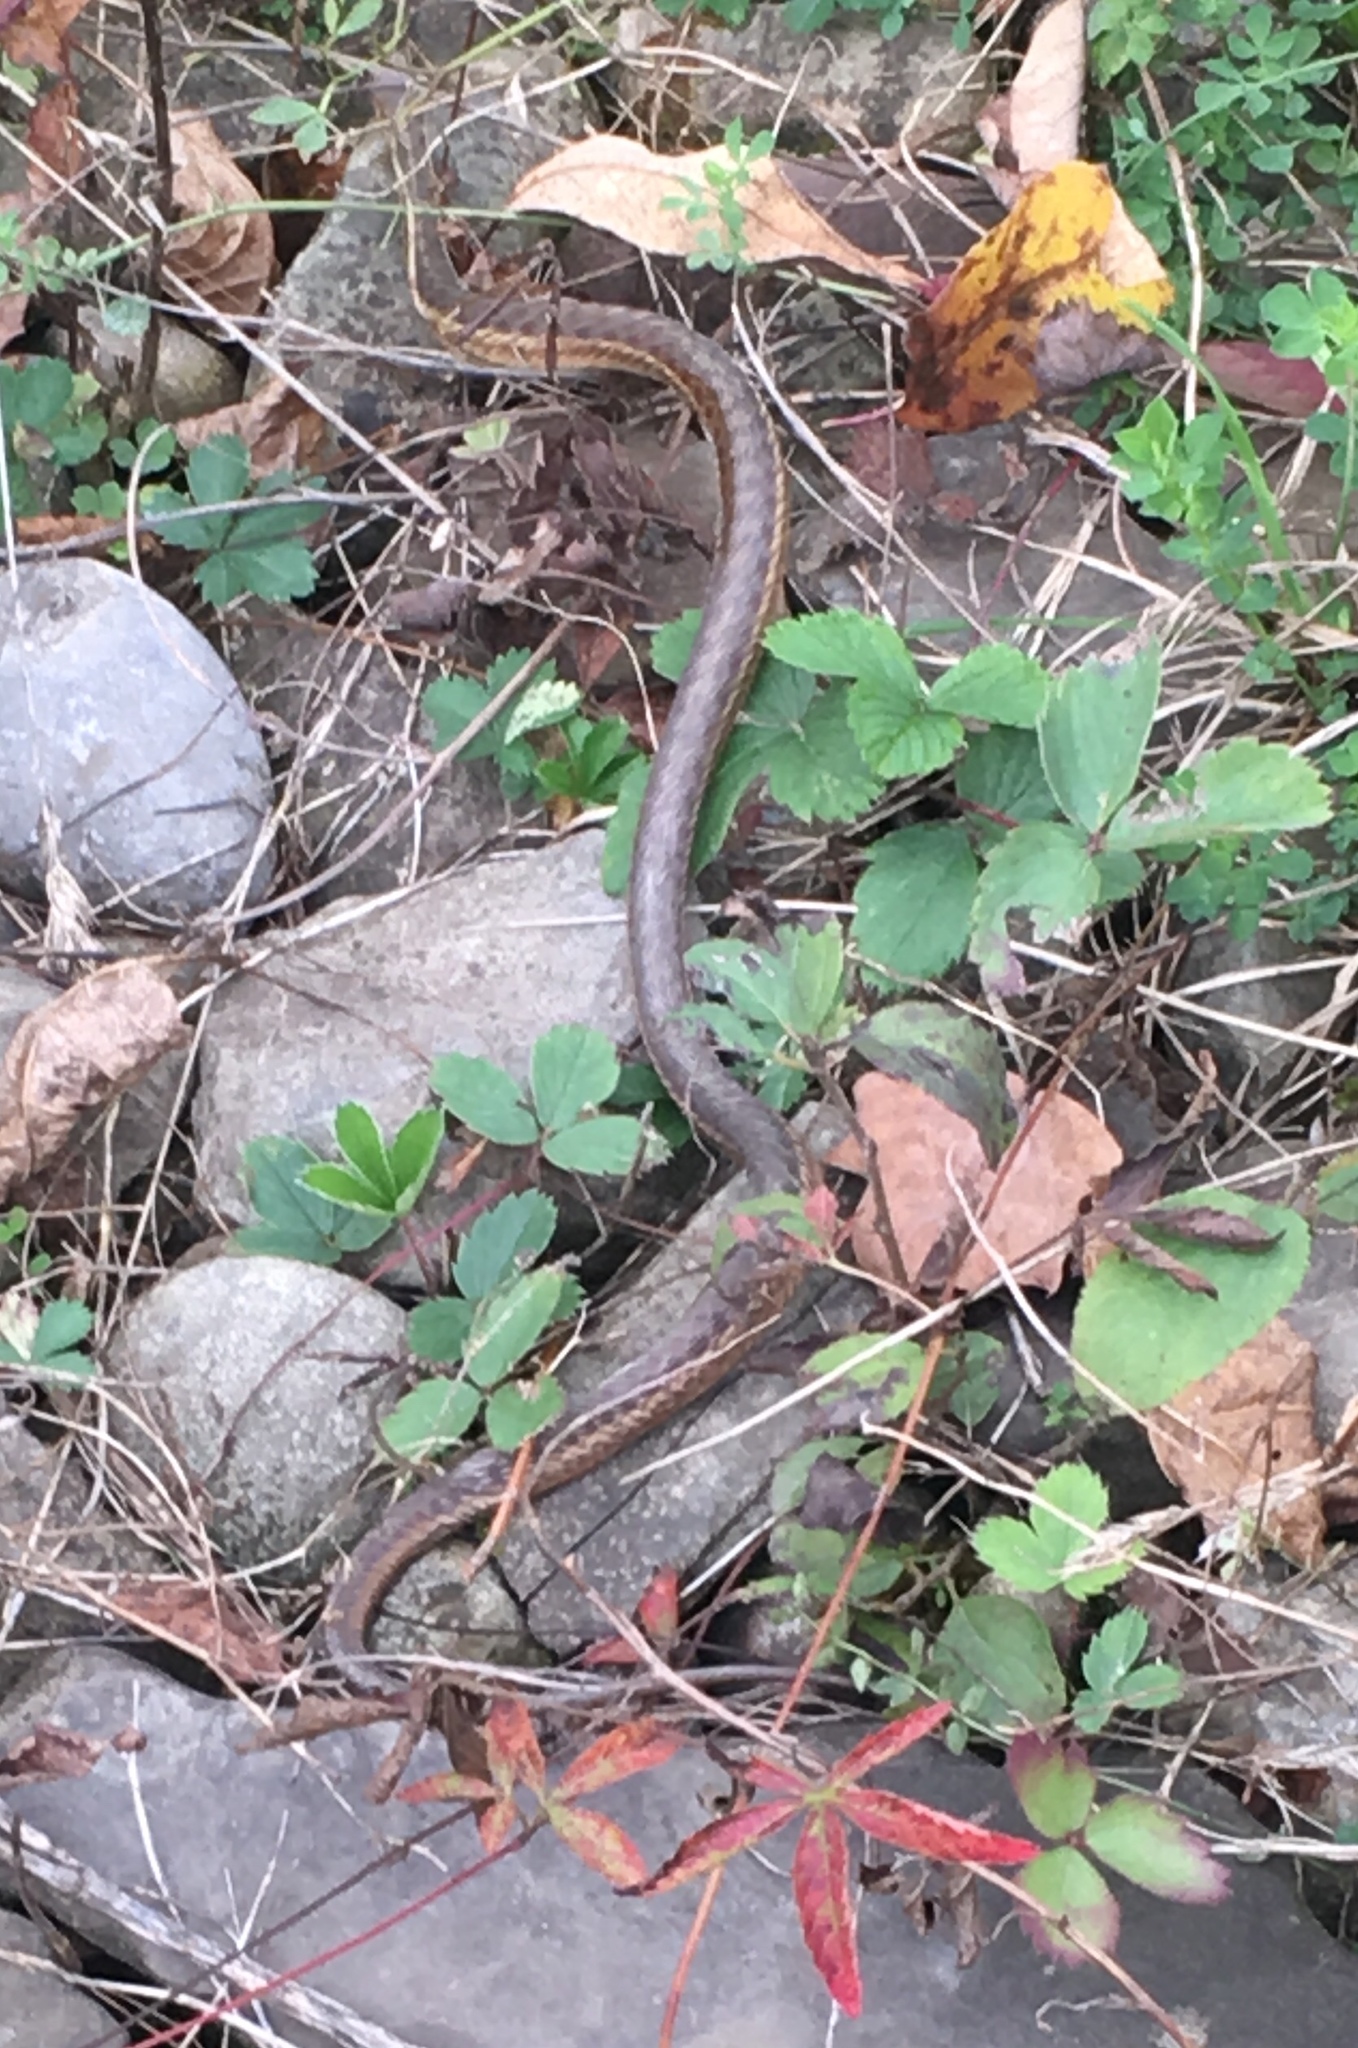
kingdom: Animalia
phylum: Chordata
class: Squamata
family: Colubridae
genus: Thamnophis
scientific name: Thamnophis sirtalis
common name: Common garter snake
